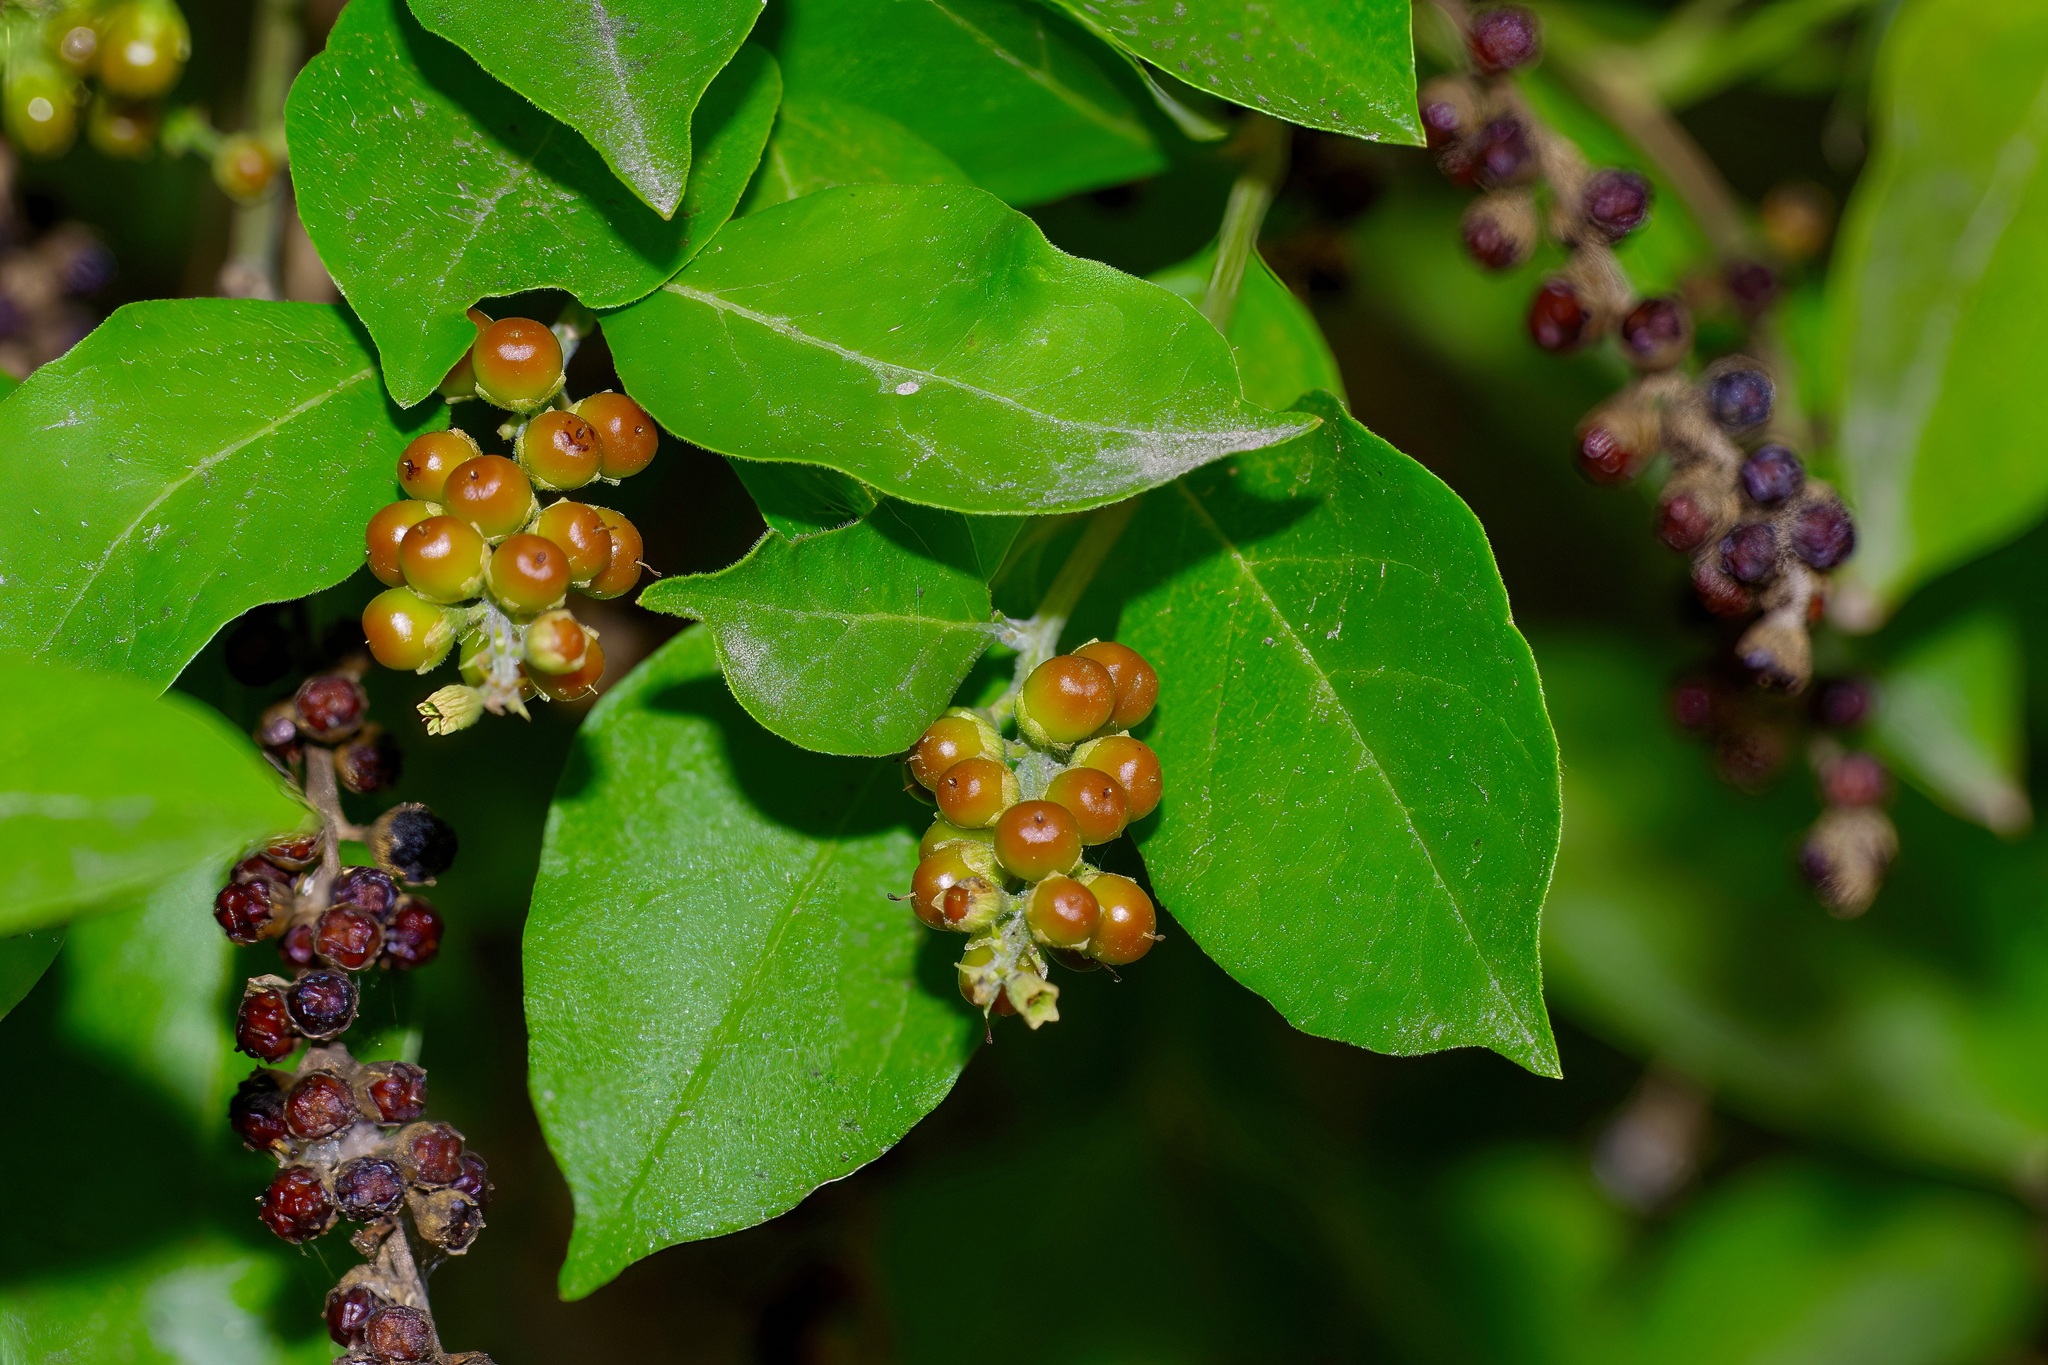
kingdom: Plantae
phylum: Tracheophyta
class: Magnoliopsida
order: Lamiales
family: Verbenaceae
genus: Citharexylum
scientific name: Citharexylum berlandieri
